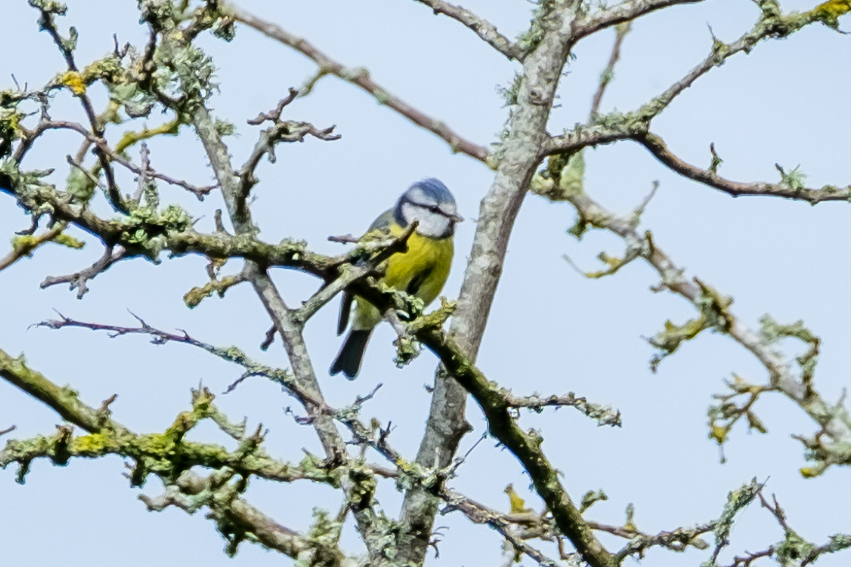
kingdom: Animalia
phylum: Chordata
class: Aves
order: Passeriformes
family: Paridae
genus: Cyanistes
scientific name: Cyanistes caeruleus
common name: Eurasian blue tit
